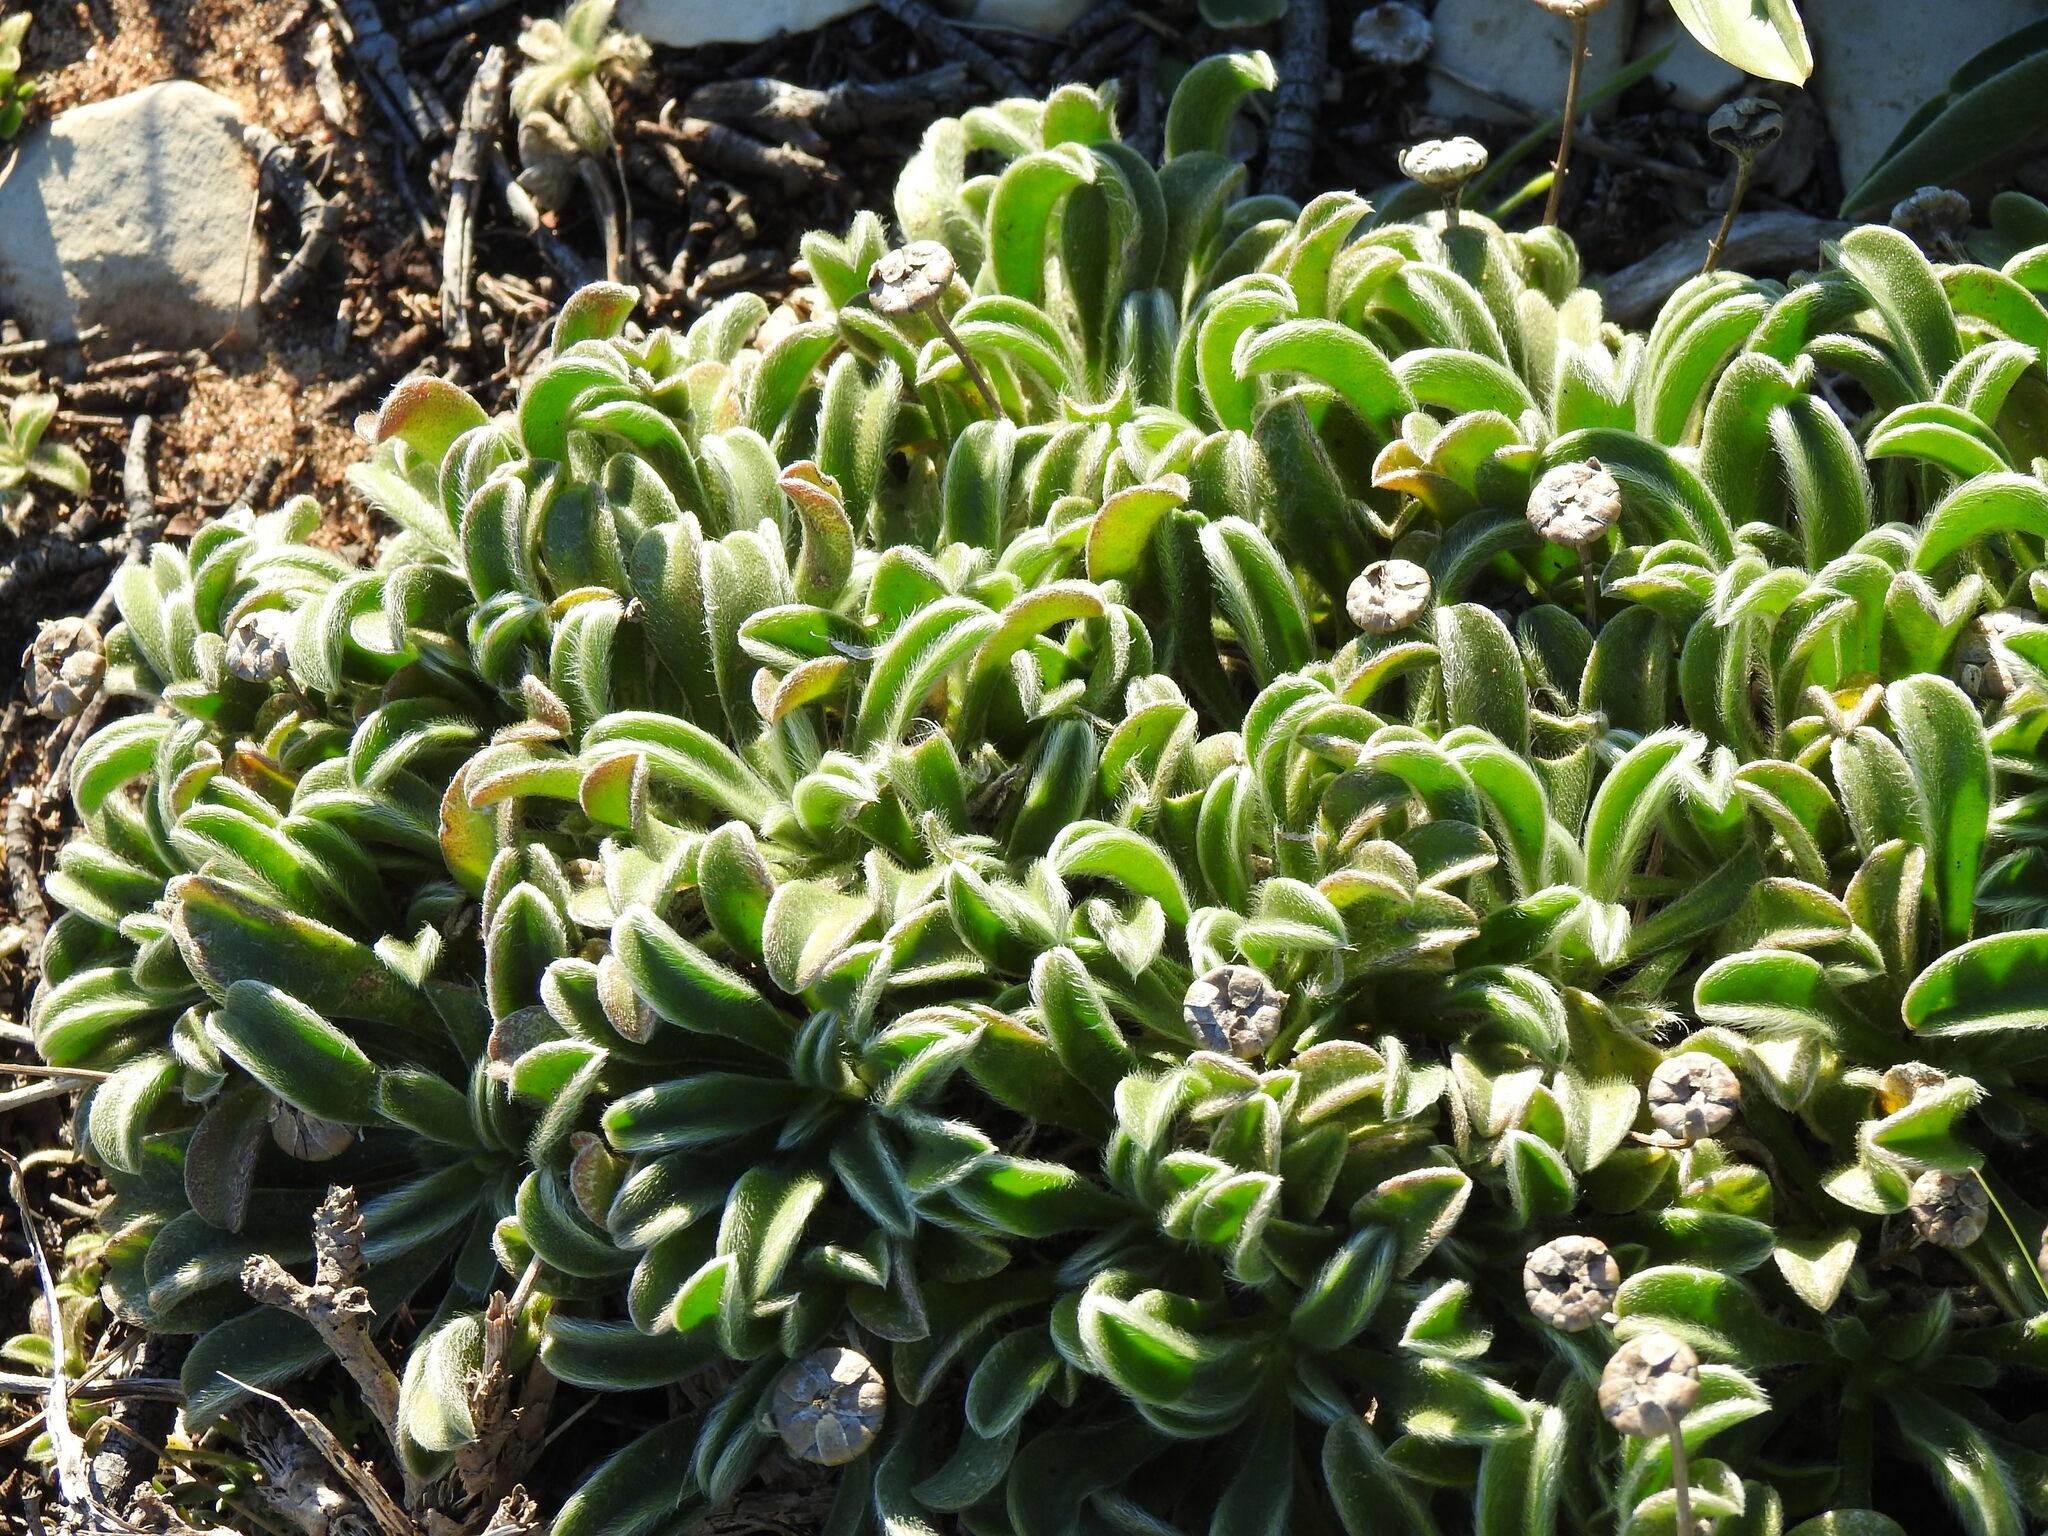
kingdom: Plantae
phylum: Tracheophyta
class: Magnoliopsida
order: Asterales
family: Asteraceae
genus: Pallenis
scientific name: Pallenis maritima
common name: Golden coin daisy
